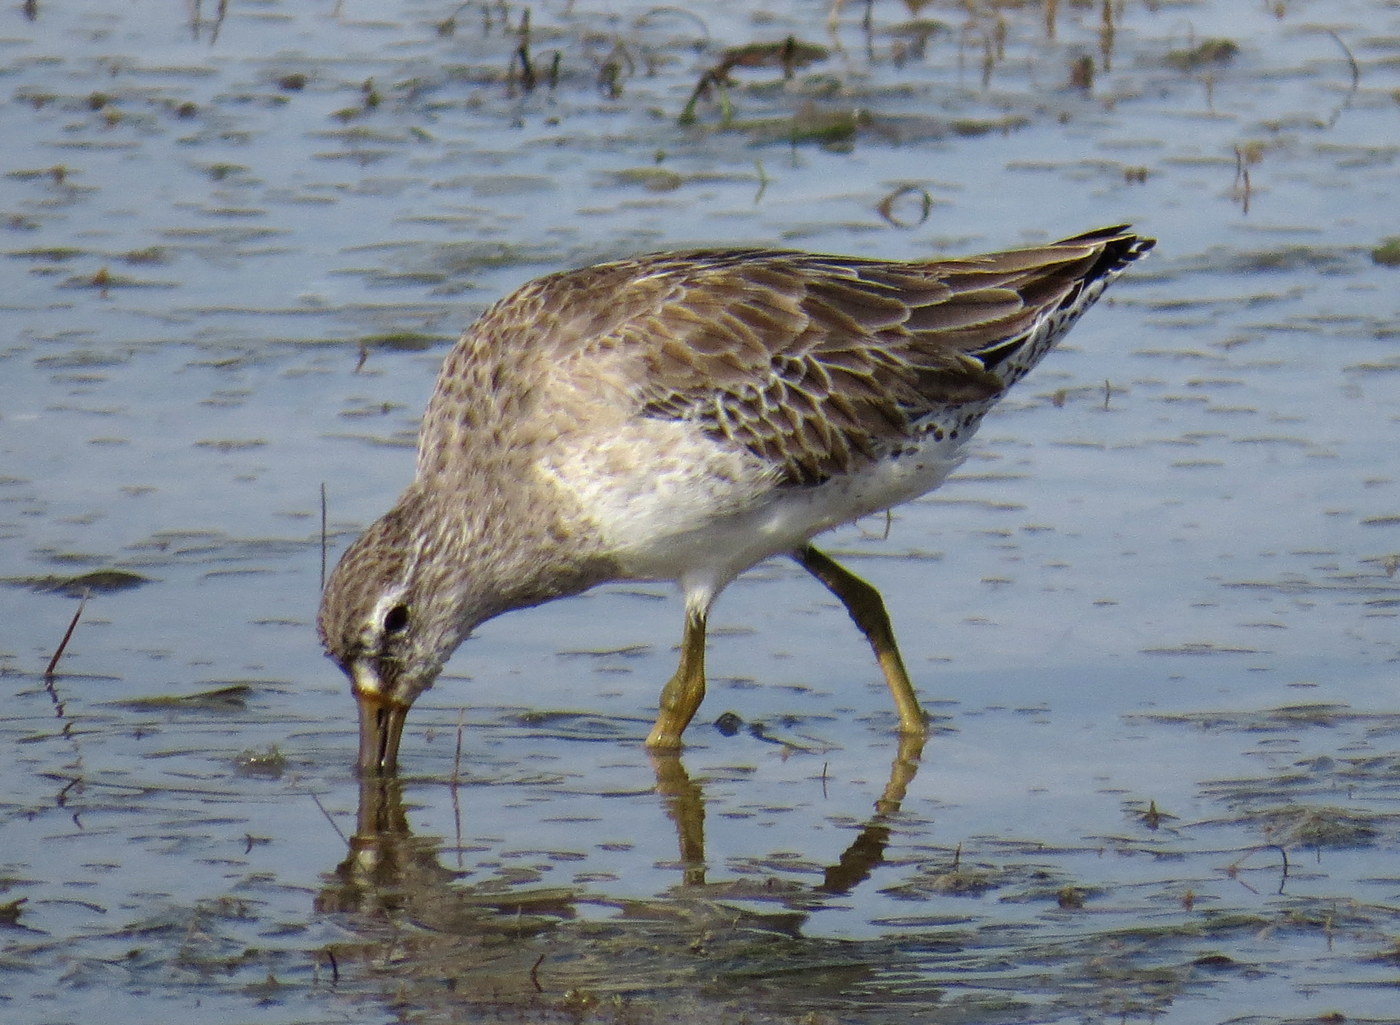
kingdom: Animalia
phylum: Chordata
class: Aves
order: Charadriiformes
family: Scolopacidae
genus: Limnodromus
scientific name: Limnodromus griseus
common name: Short-billed dowitcher
